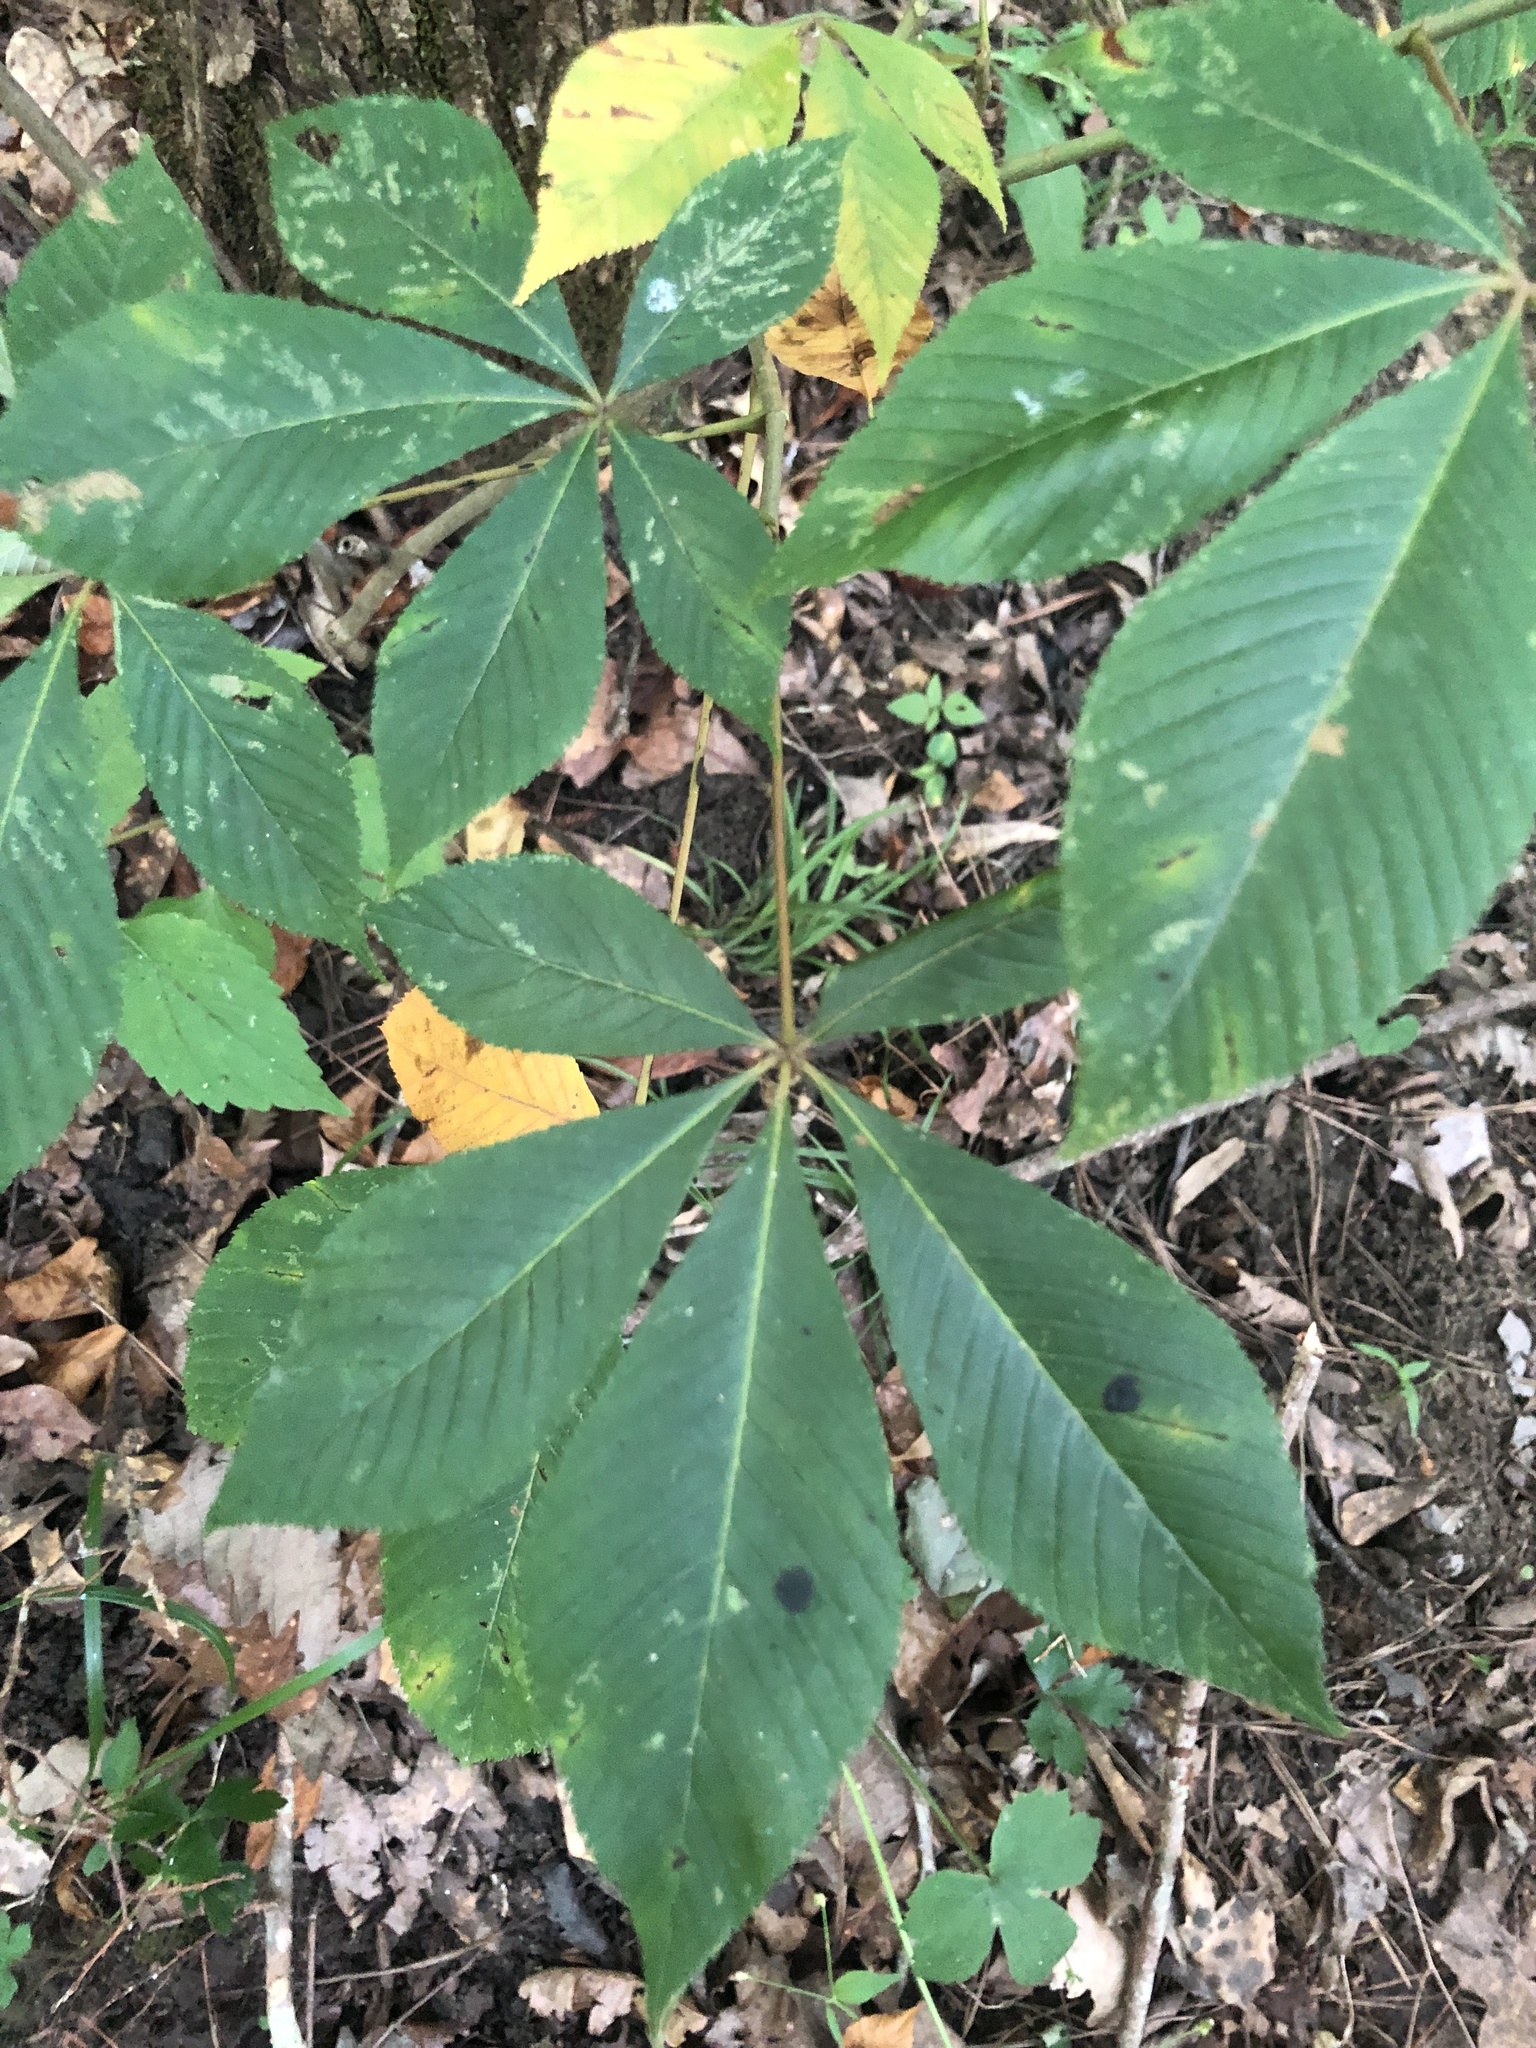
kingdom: Plantae
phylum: Tracheophyta
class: Magnoliopsida
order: Sapindales
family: Sapindaceae
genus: Aesculus
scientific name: Aesculus glabra
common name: Ohio buckeye
